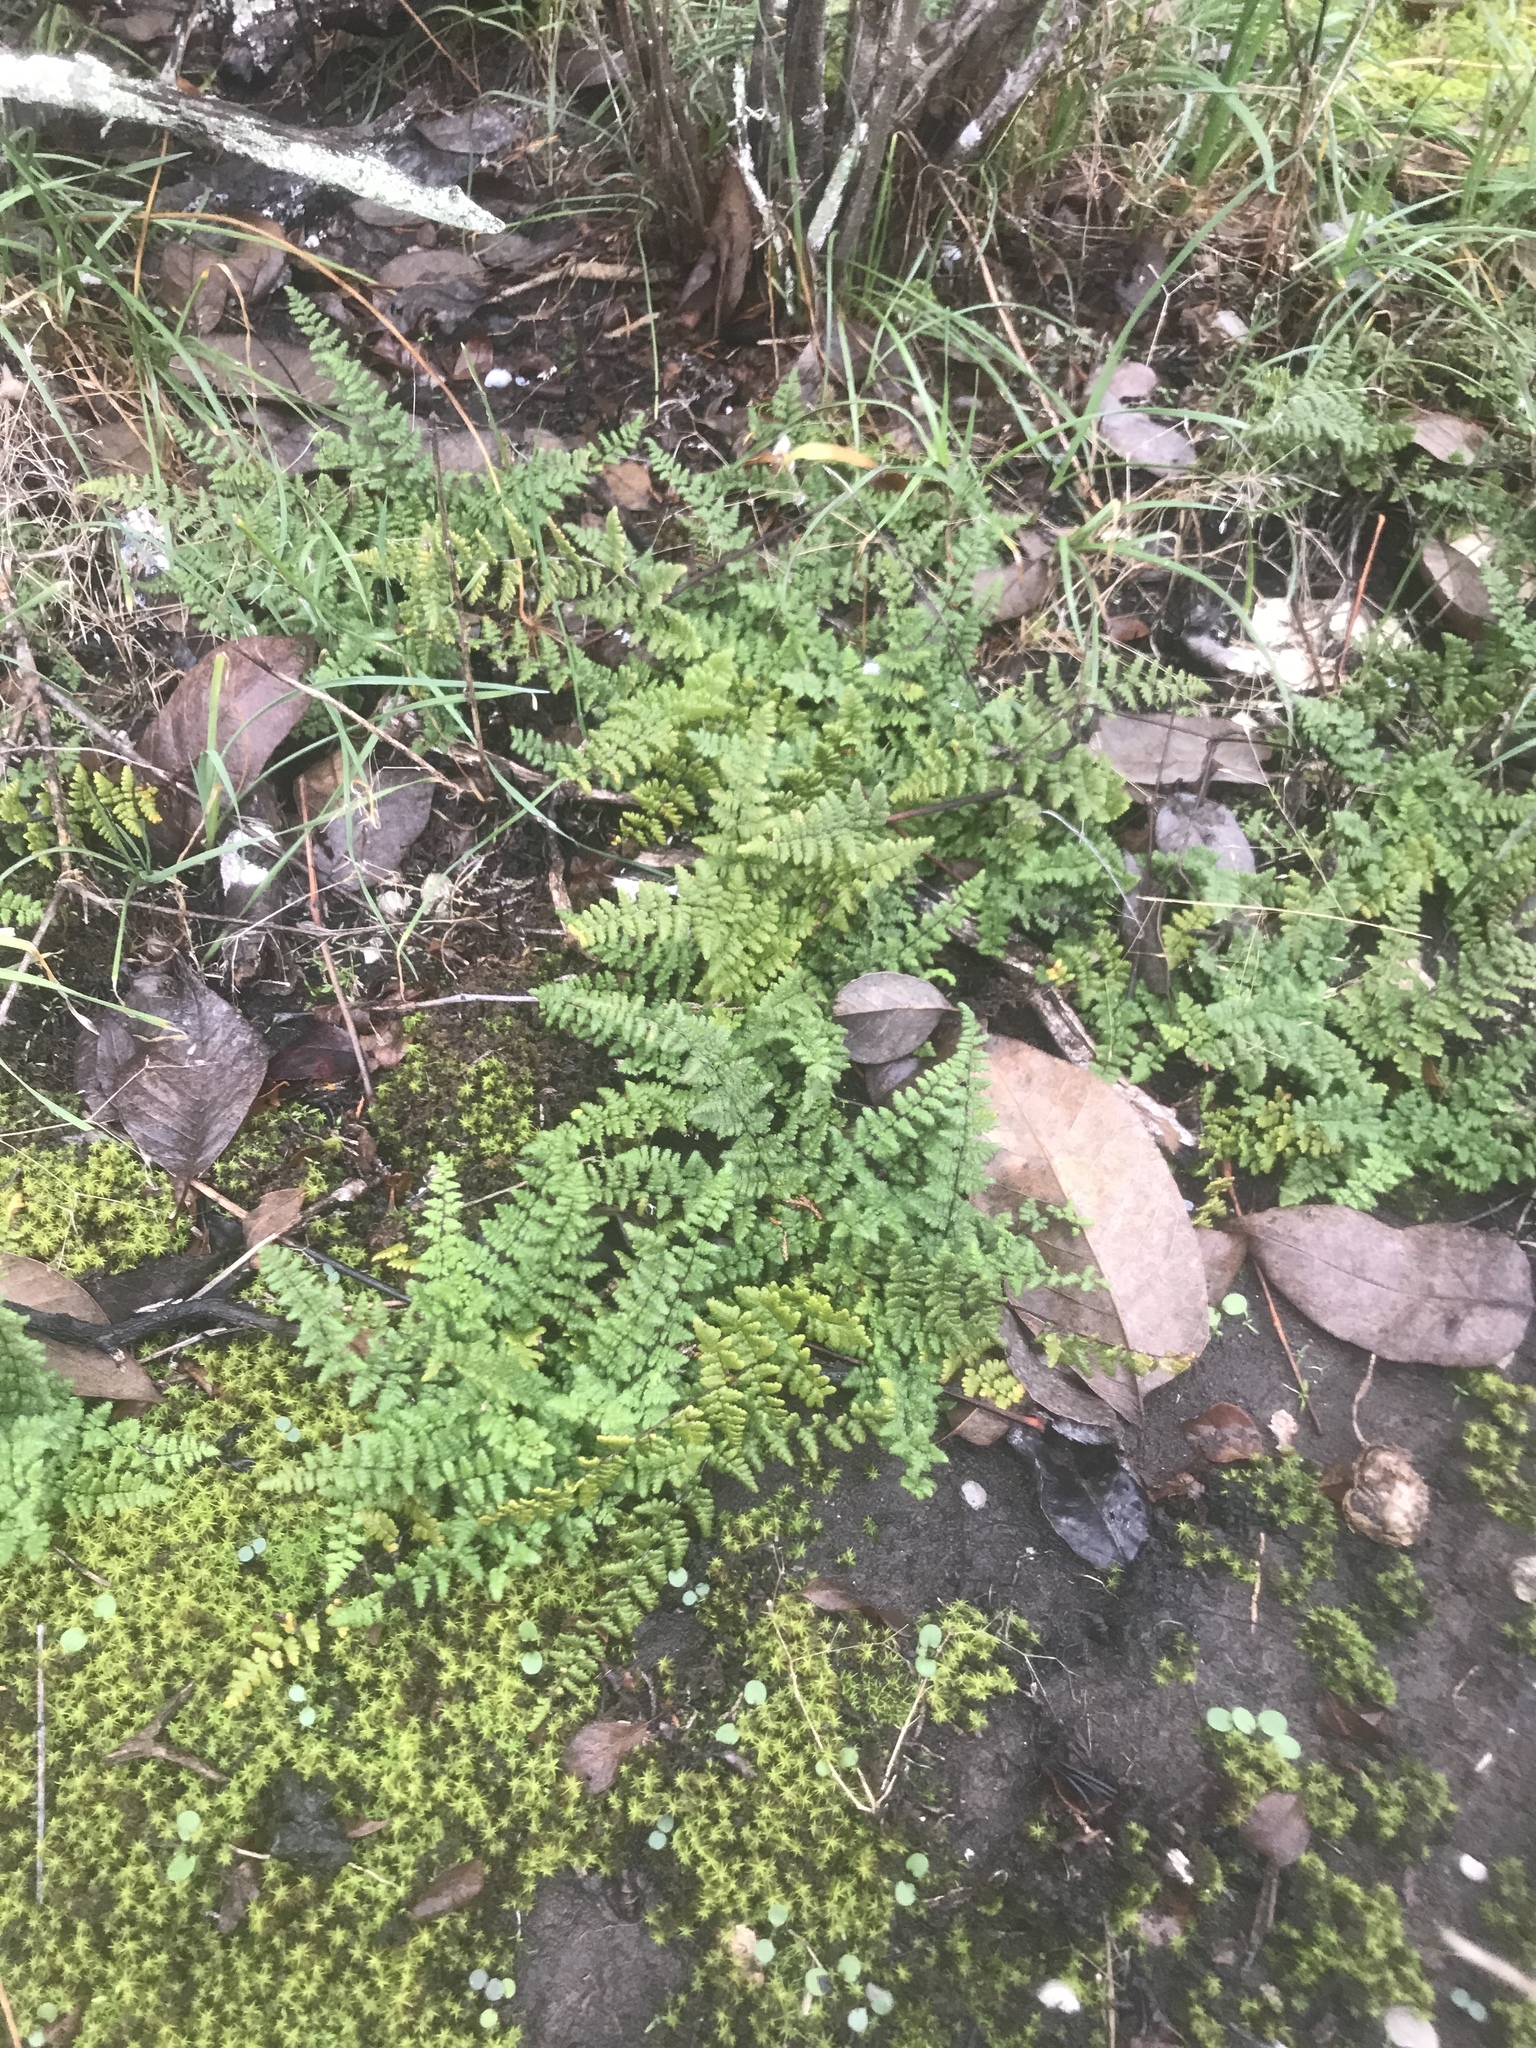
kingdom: Plantae
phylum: Tracheophyta
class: Polypodiopsida
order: Polypodiales
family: Pteridaceae
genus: Myriopteris
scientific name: Myriopteris lanosa
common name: Hairy lip fern
